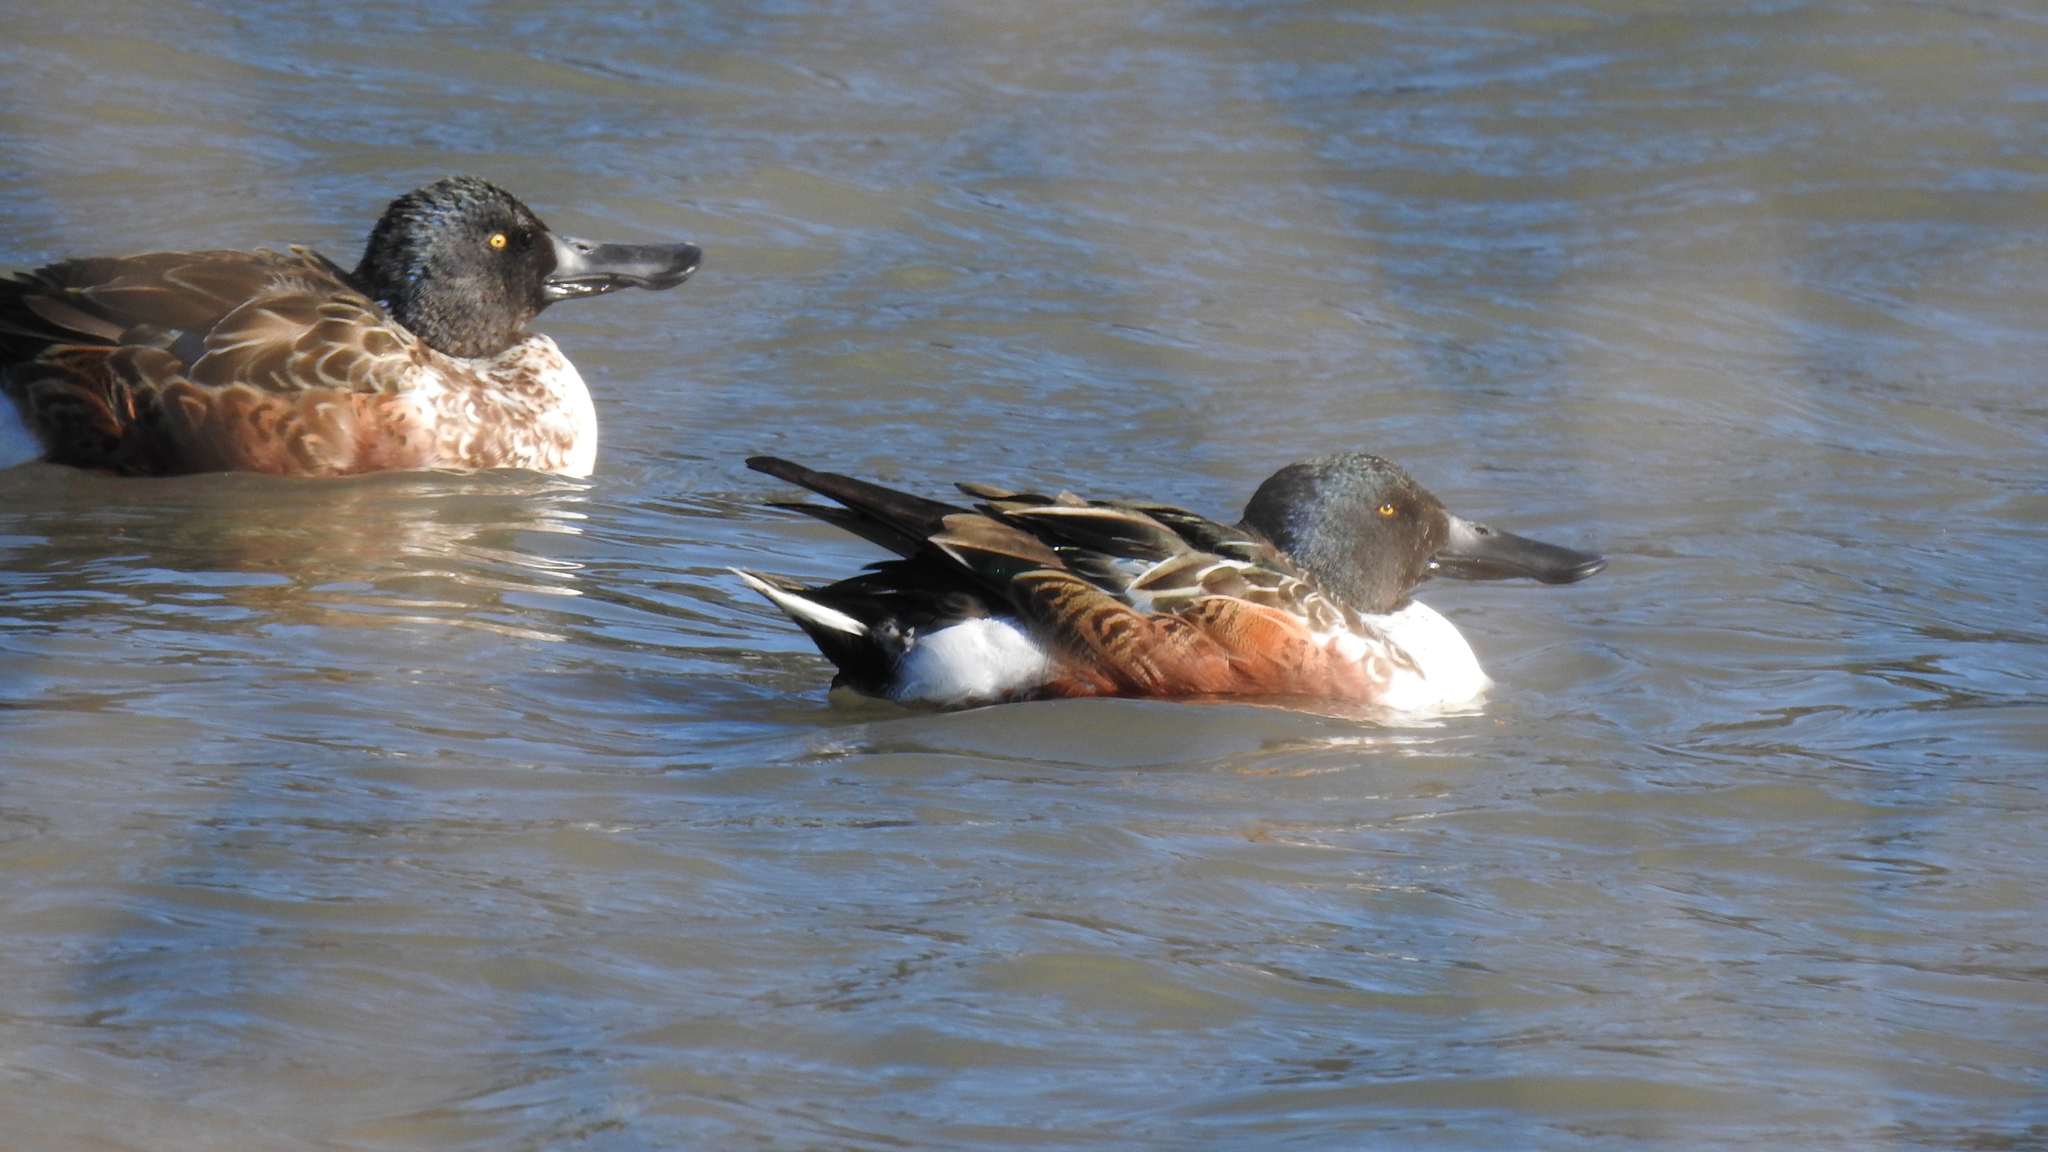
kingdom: Animalia
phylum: Chordata
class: Aves
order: Anseriformes
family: Anatidae
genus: Spatula
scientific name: Spatula clypeata
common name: Northern shoveler
